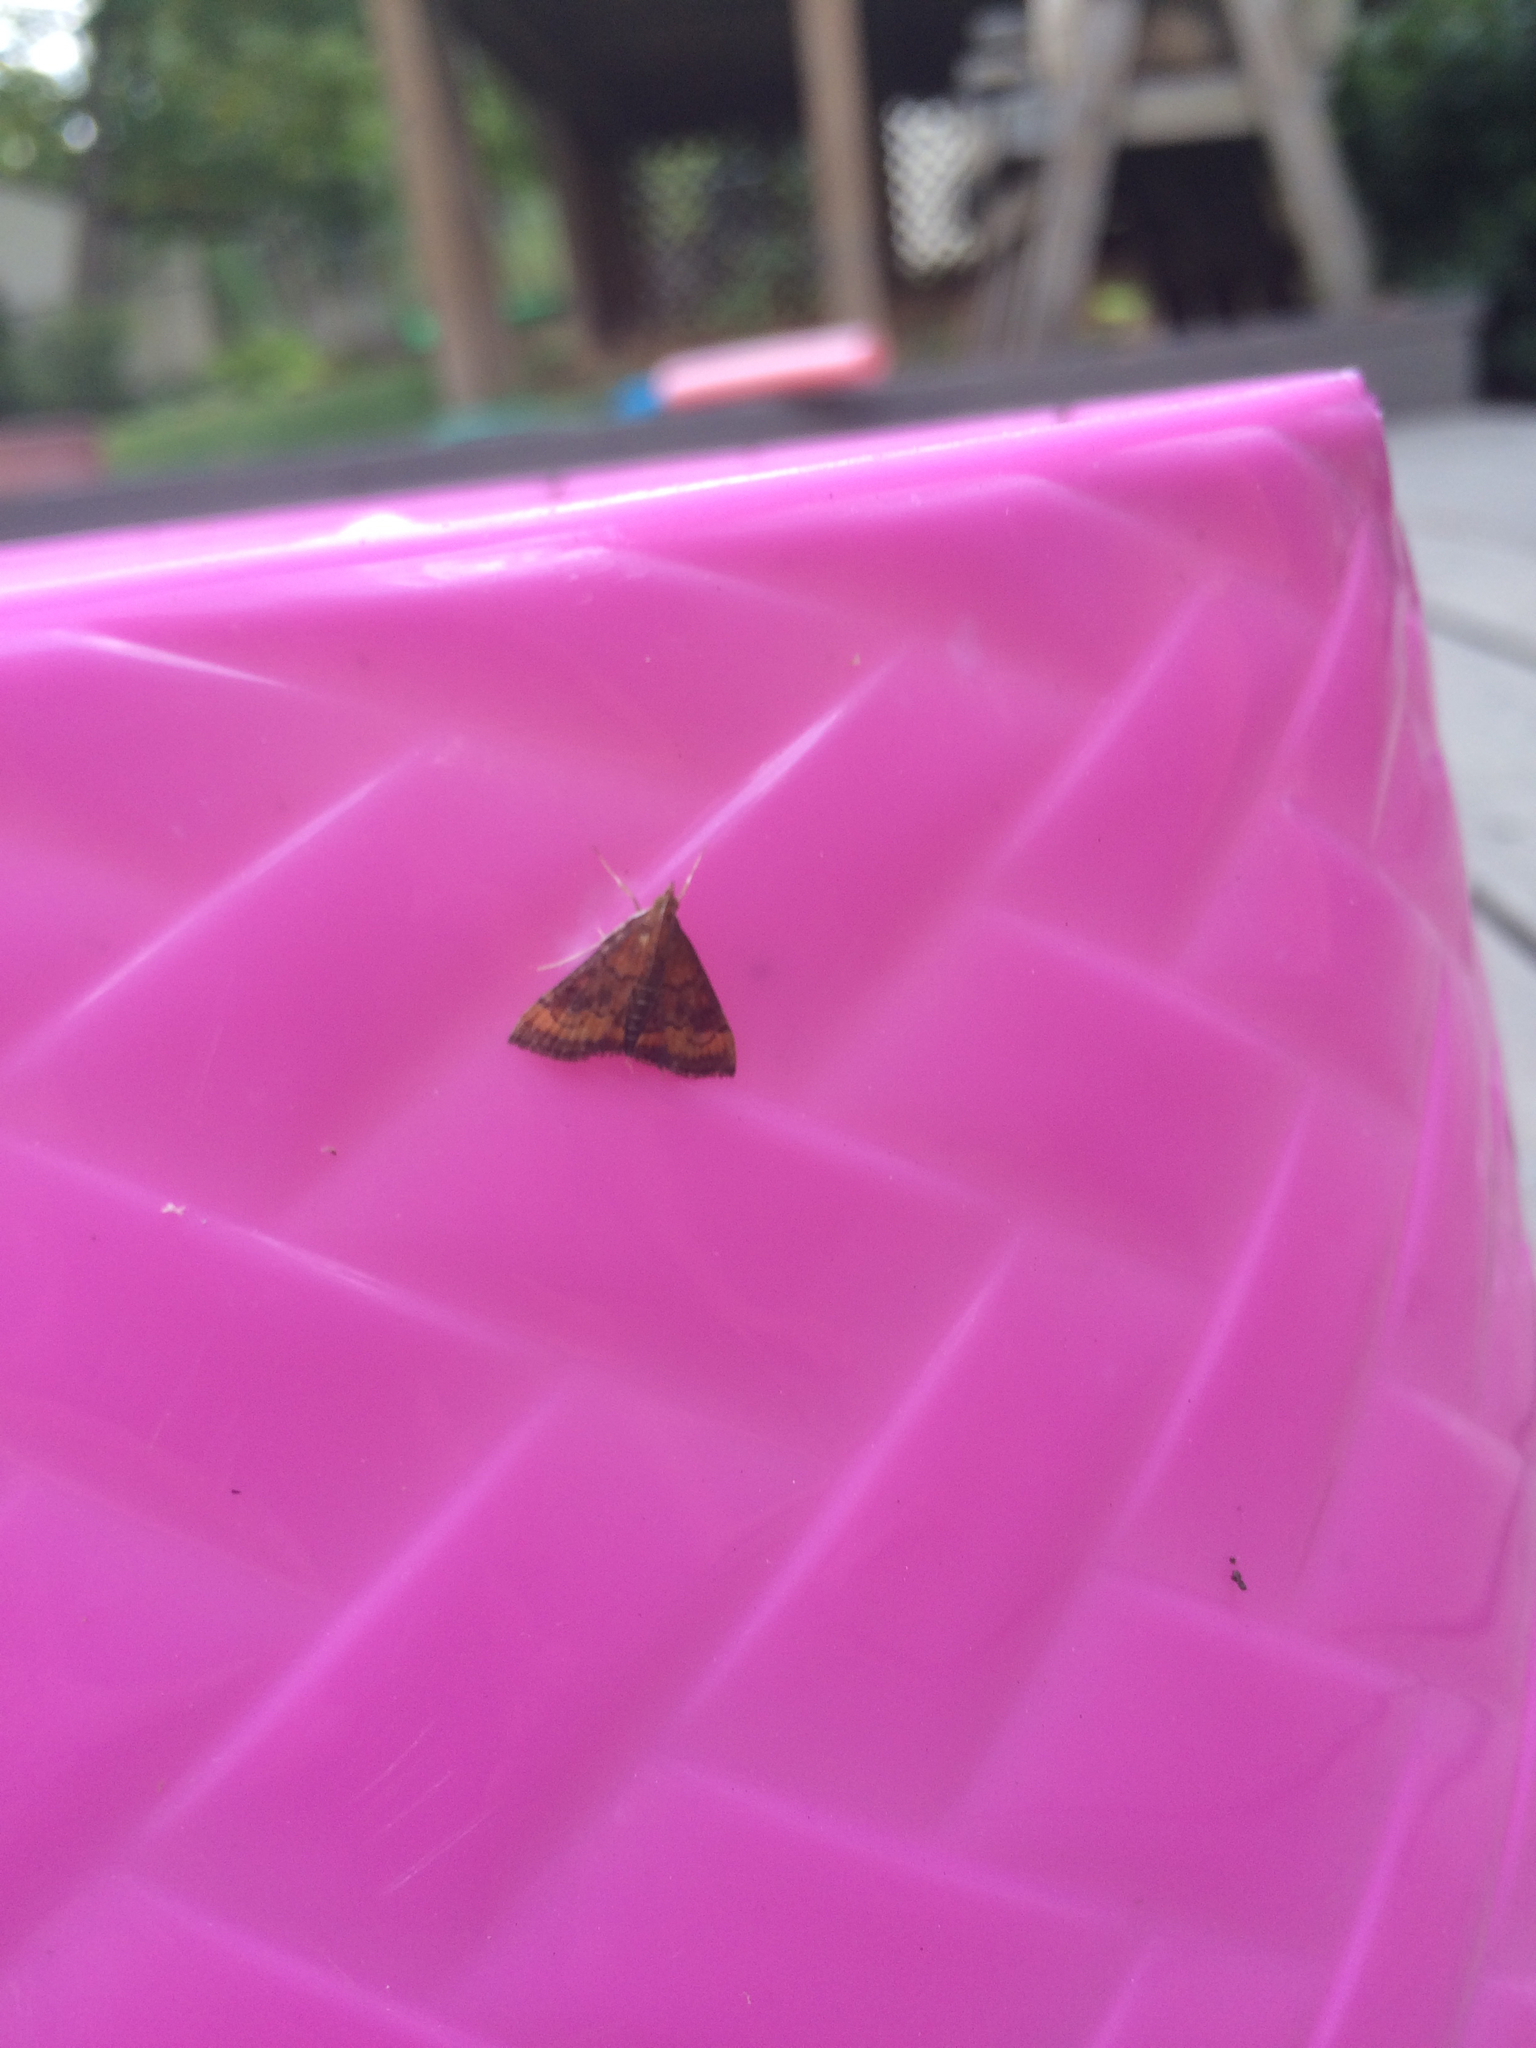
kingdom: Animalia
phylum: Arthropoda
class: Insecta
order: Lepidoptera
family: Crambidae
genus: Pyrausta
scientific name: Pyrausta rubricalis
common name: Variable reddish pyrausta
